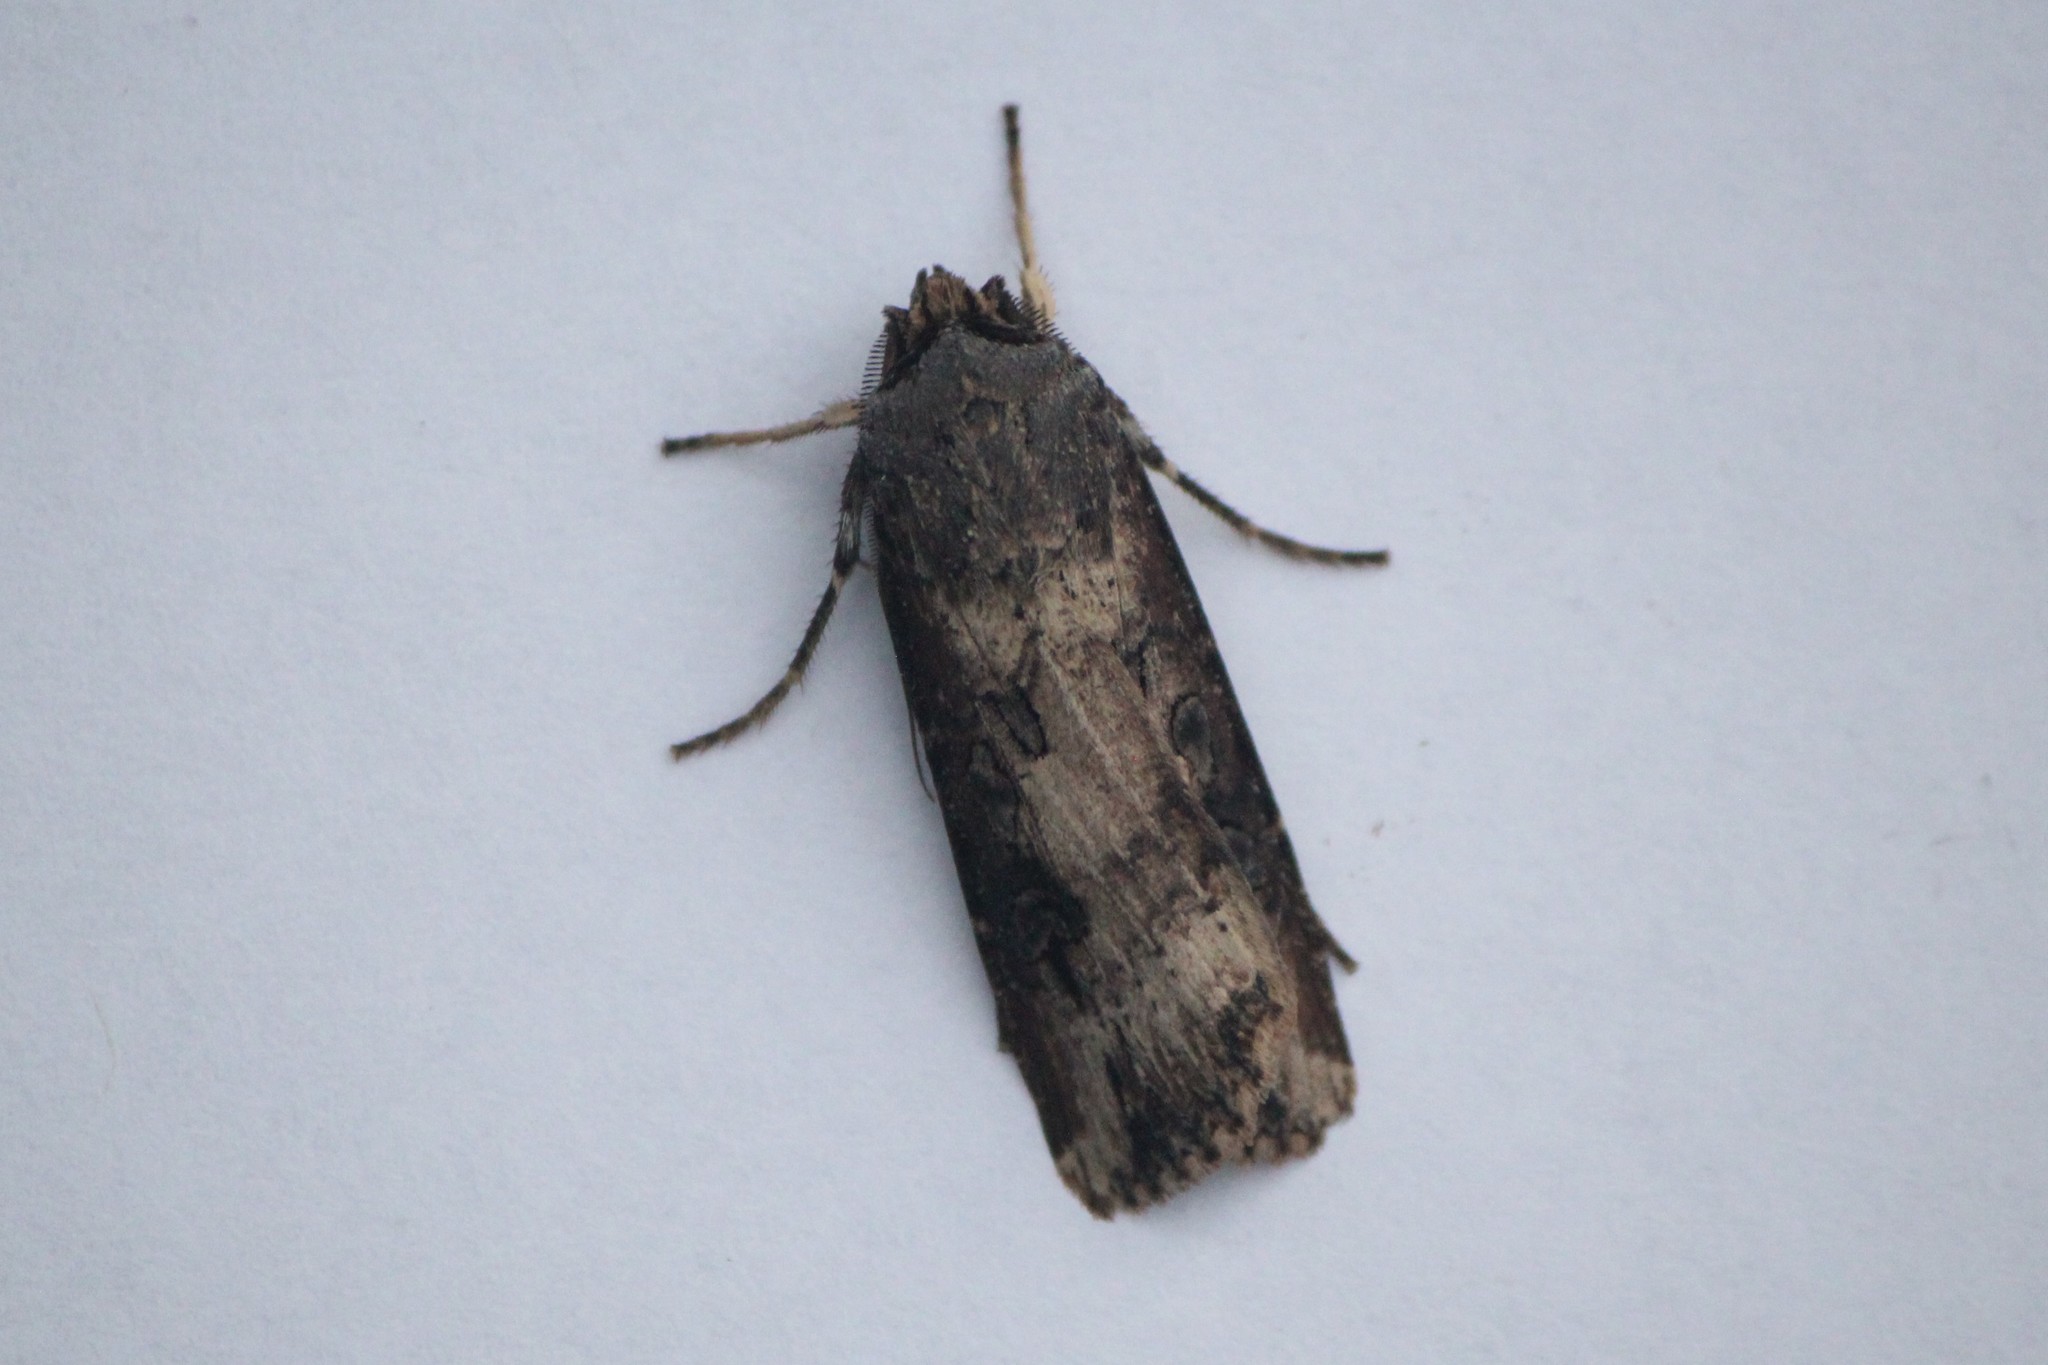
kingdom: Animalia
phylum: Arthropoda
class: Insecta
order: Lepidoptera
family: Noctuidae
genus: Agrotis
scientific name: Agrotis ipsilon
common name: Dark sword-grass
